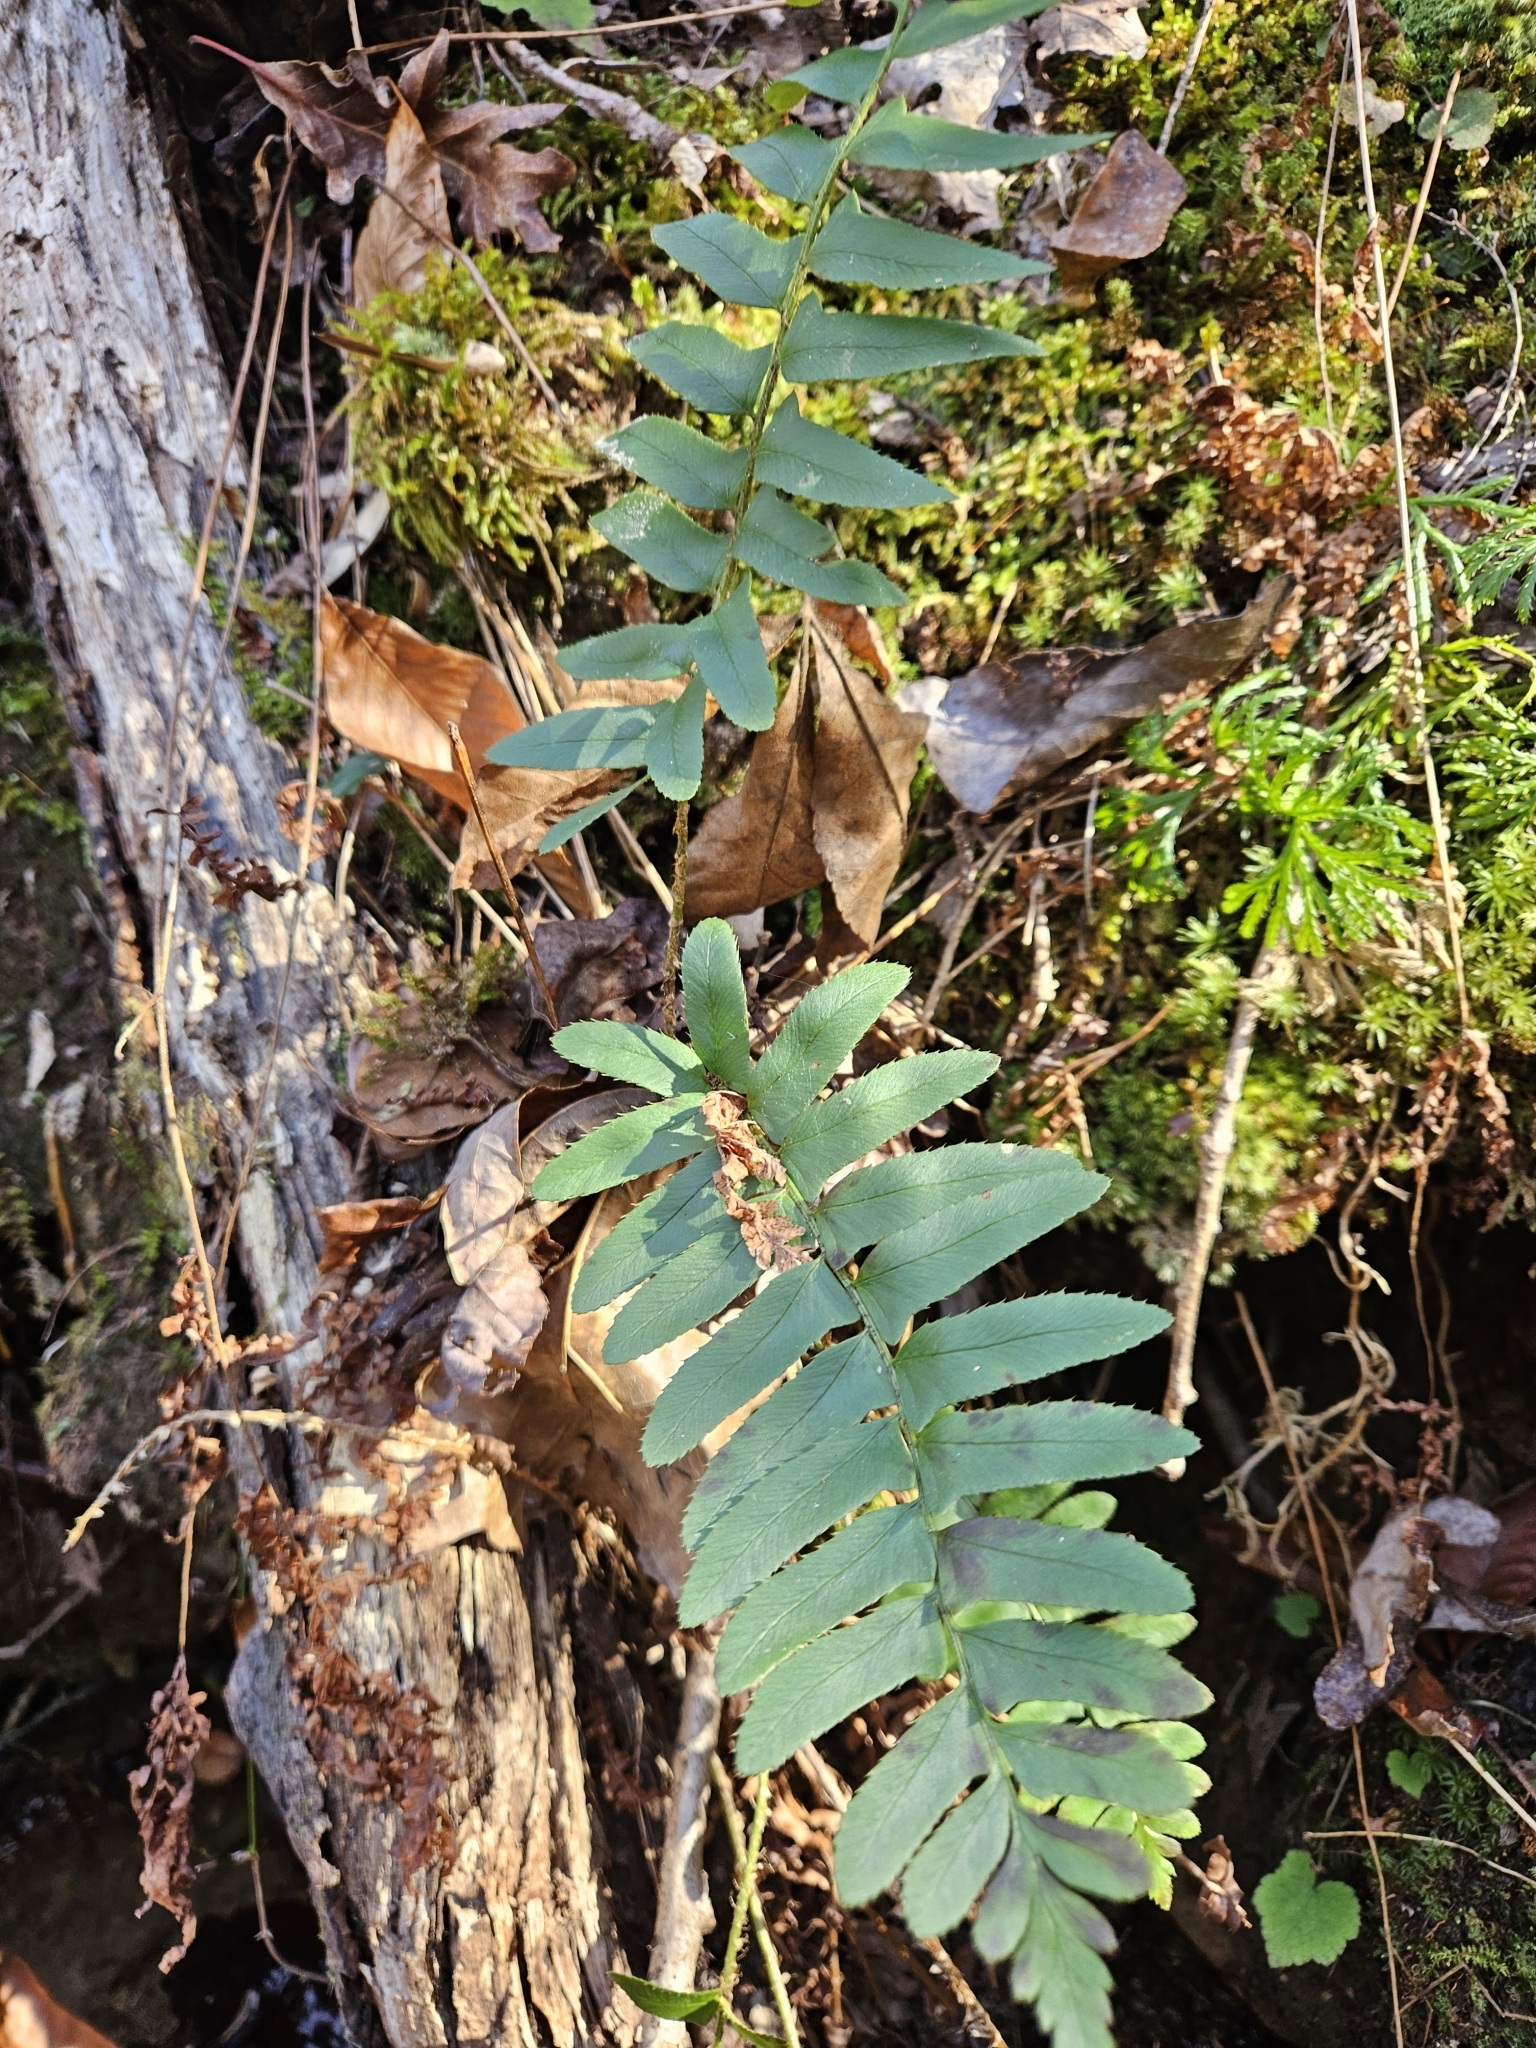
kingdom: Plantae
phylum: Tracheophyta
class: Polypodiopsida
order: Polypodiales
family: Dryopteridaceae
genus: Polystichum
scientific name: Polystichum acrostichoides
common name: Christmas fern
